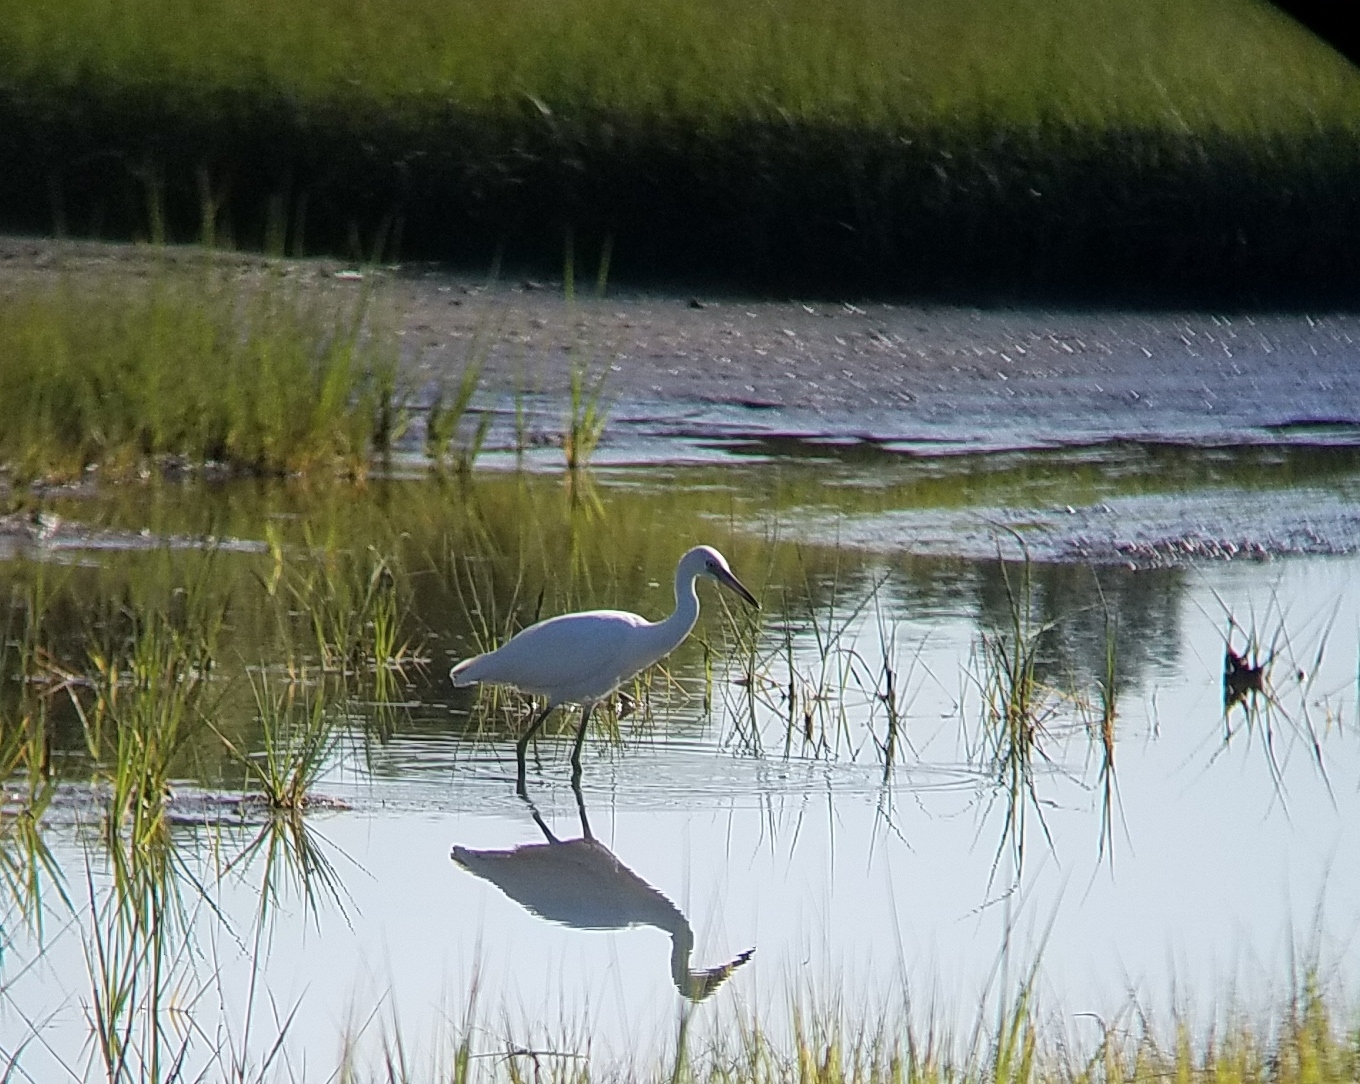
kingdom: Animalia
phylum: Chordata
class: Aves
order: Pelecaniformes
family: Ardeidae
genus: Egretta
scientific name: Egretta caerulea
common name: Little blue heron
